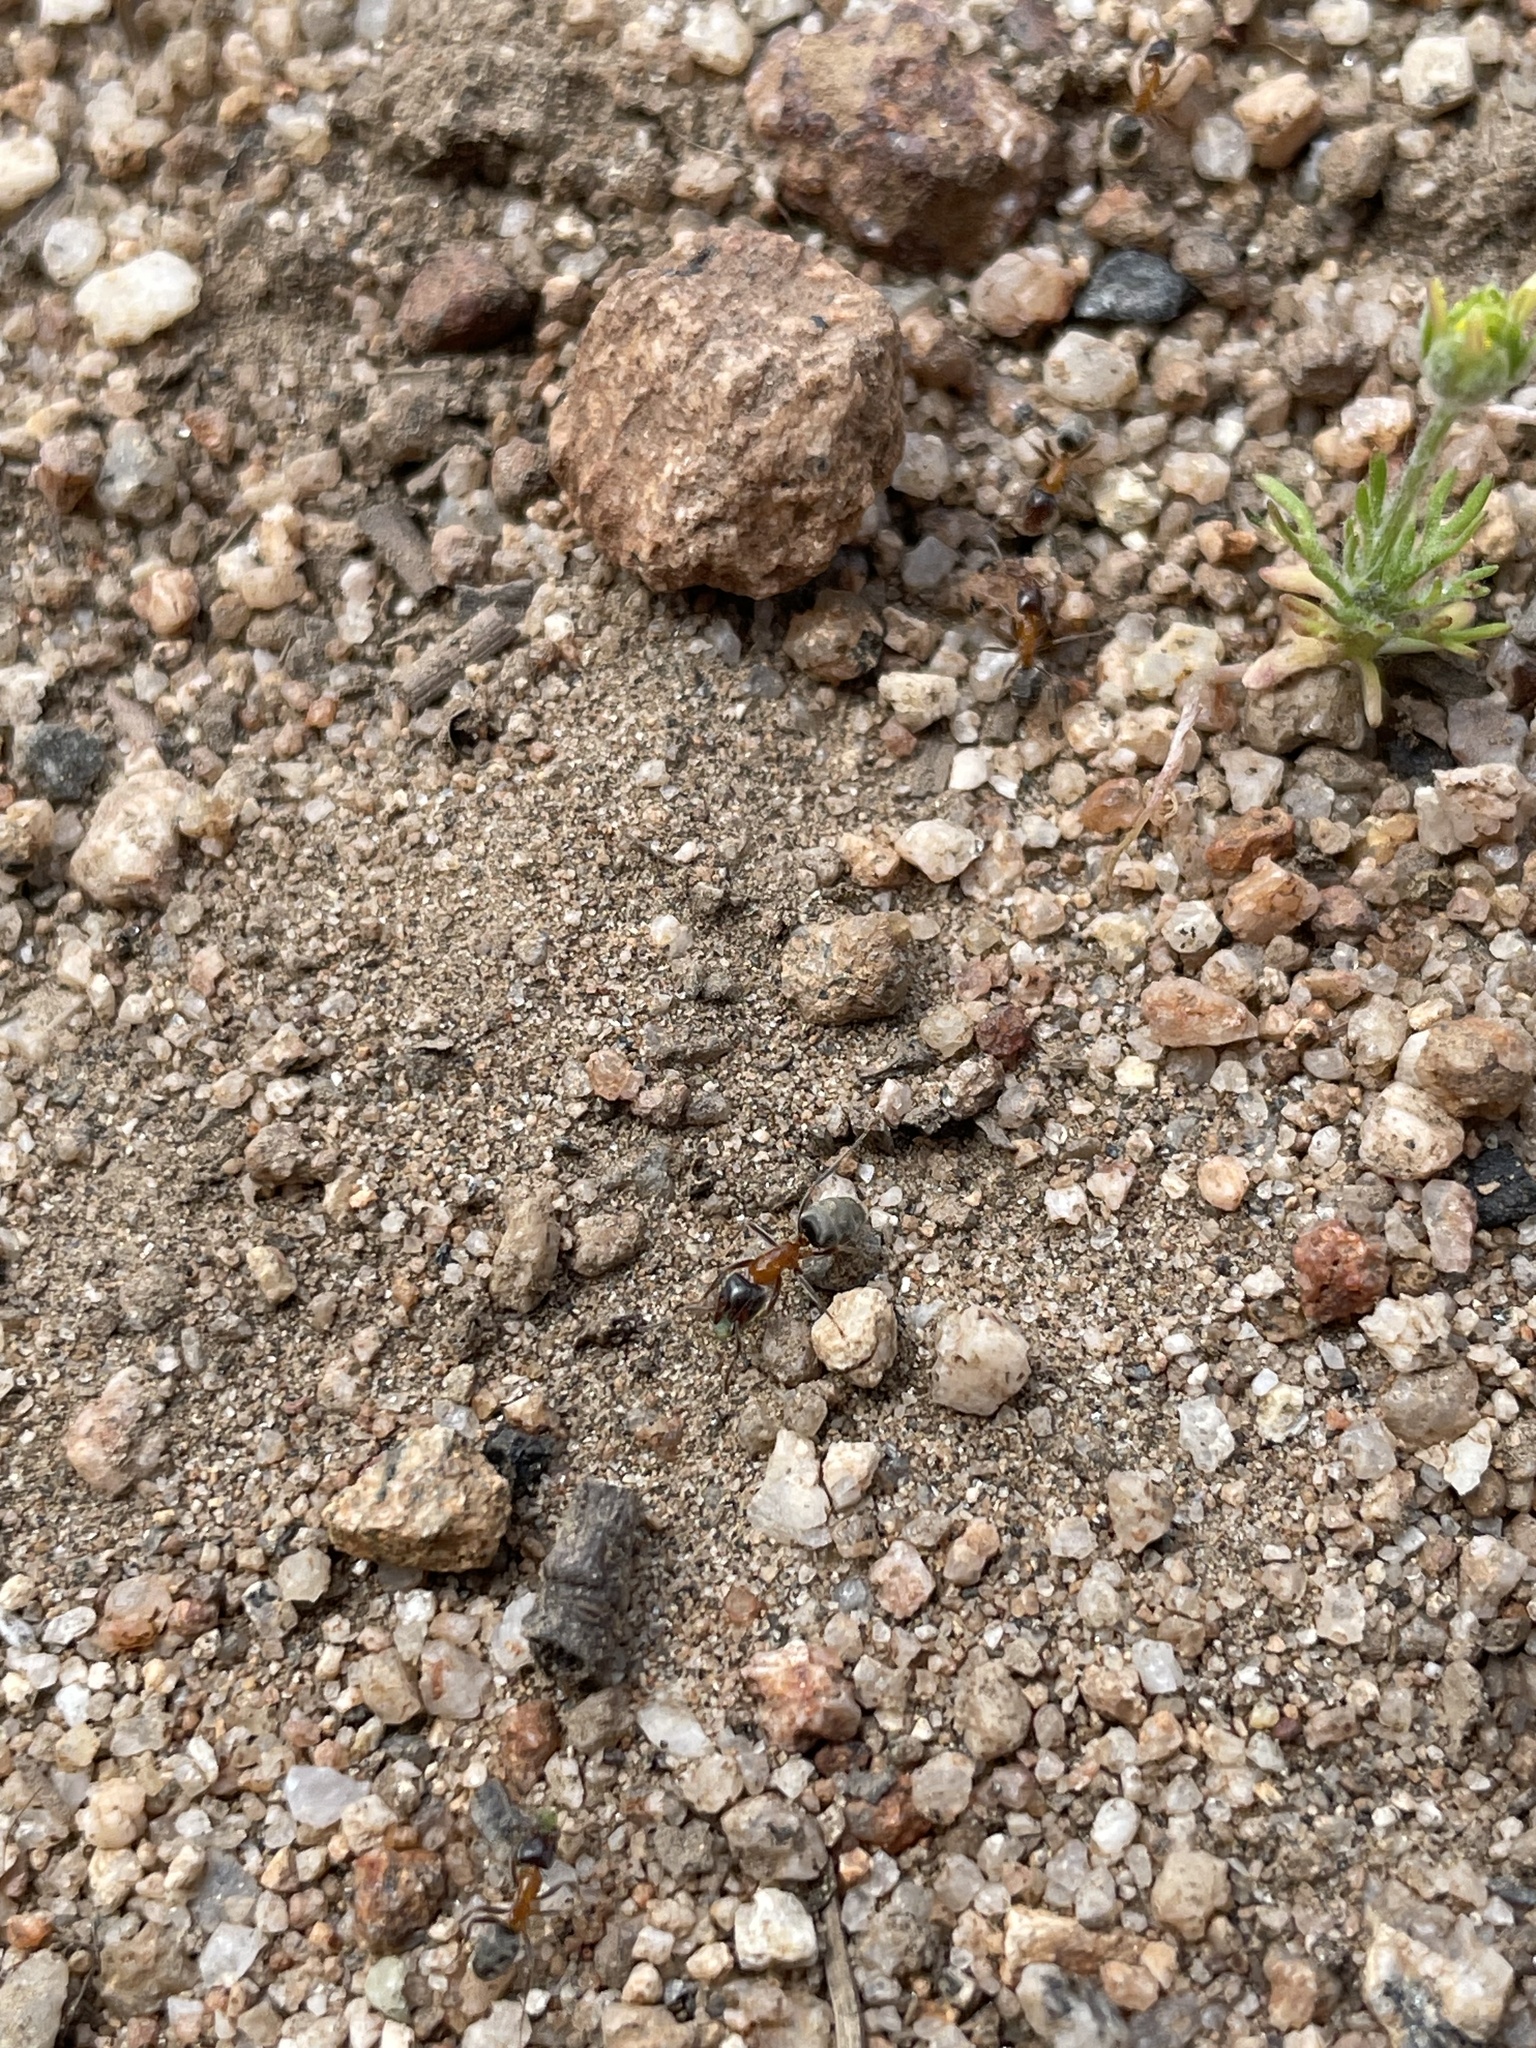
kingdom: Animalia
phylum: Arthropoda
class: Insecta
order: Hymenoptera
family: Formicidae
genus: Liometopum
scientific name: Liometopum occidentale
